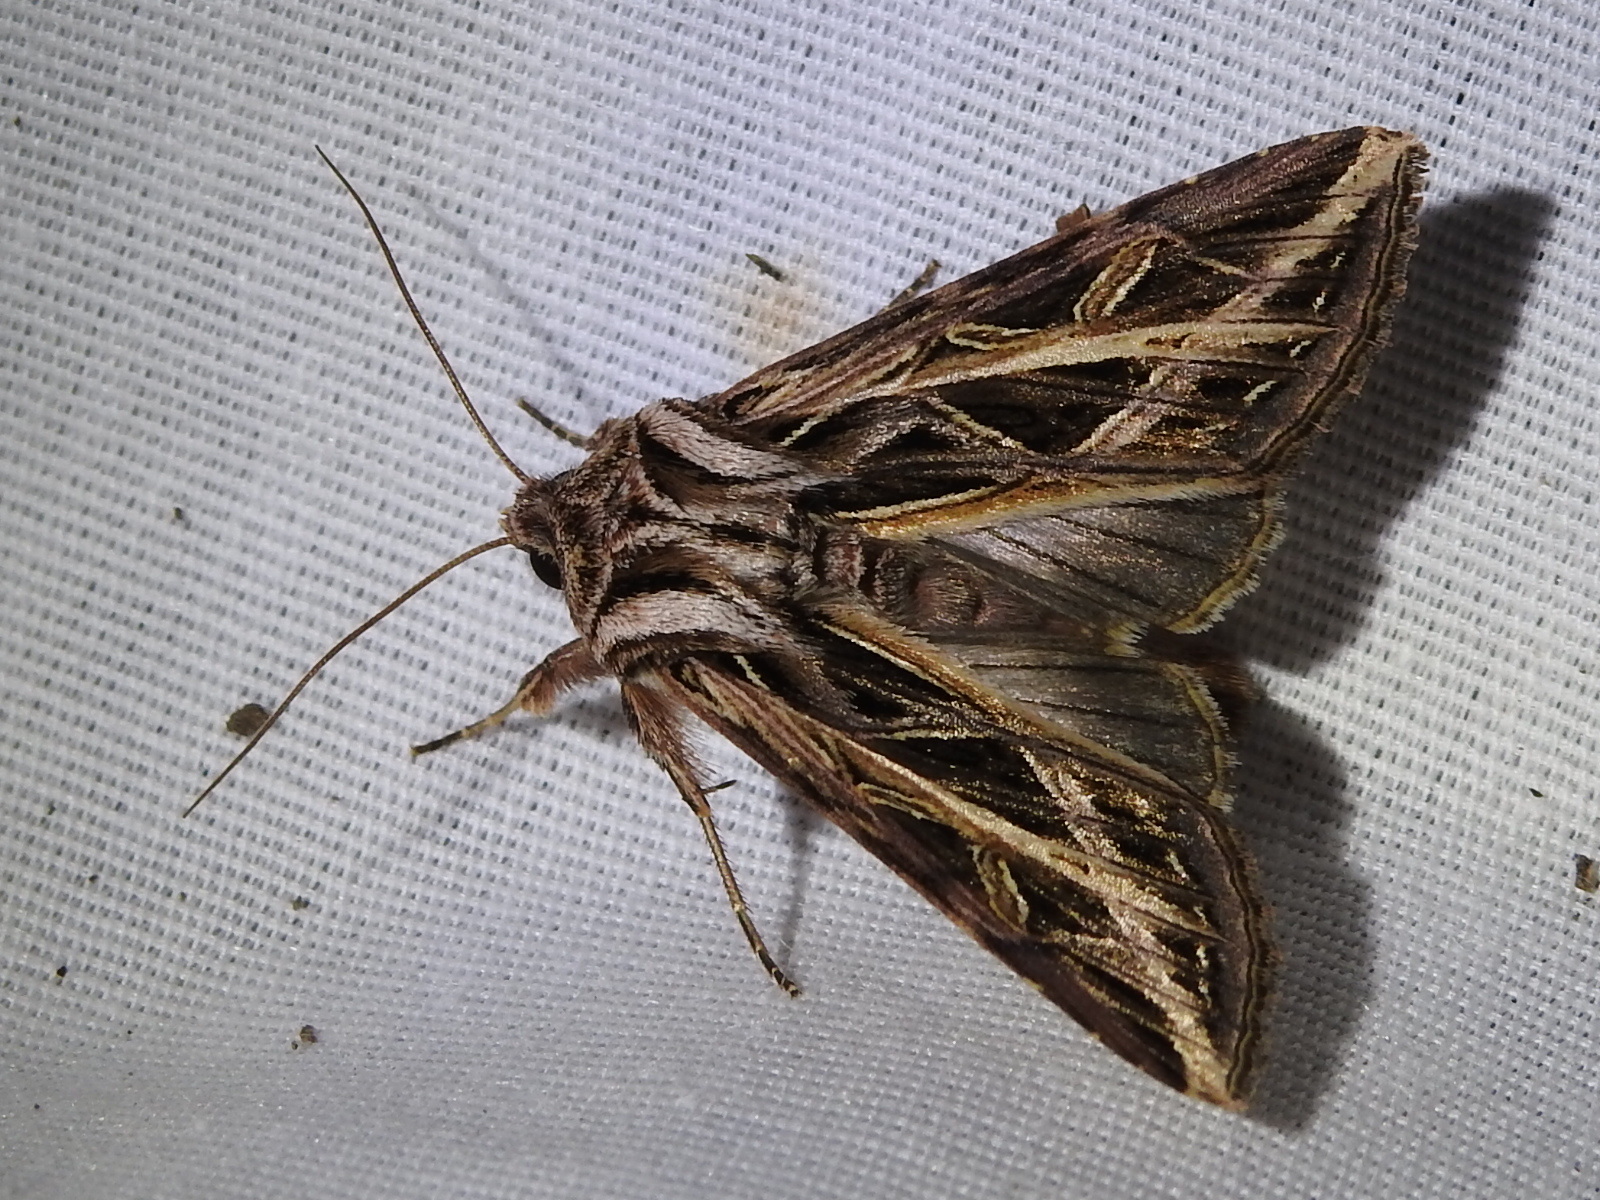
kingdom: Animalia
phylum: Arthropoda
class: Insecta
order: Lepidoptera
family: Noctuidae
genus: Dargida
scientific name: Dargida procinctus
